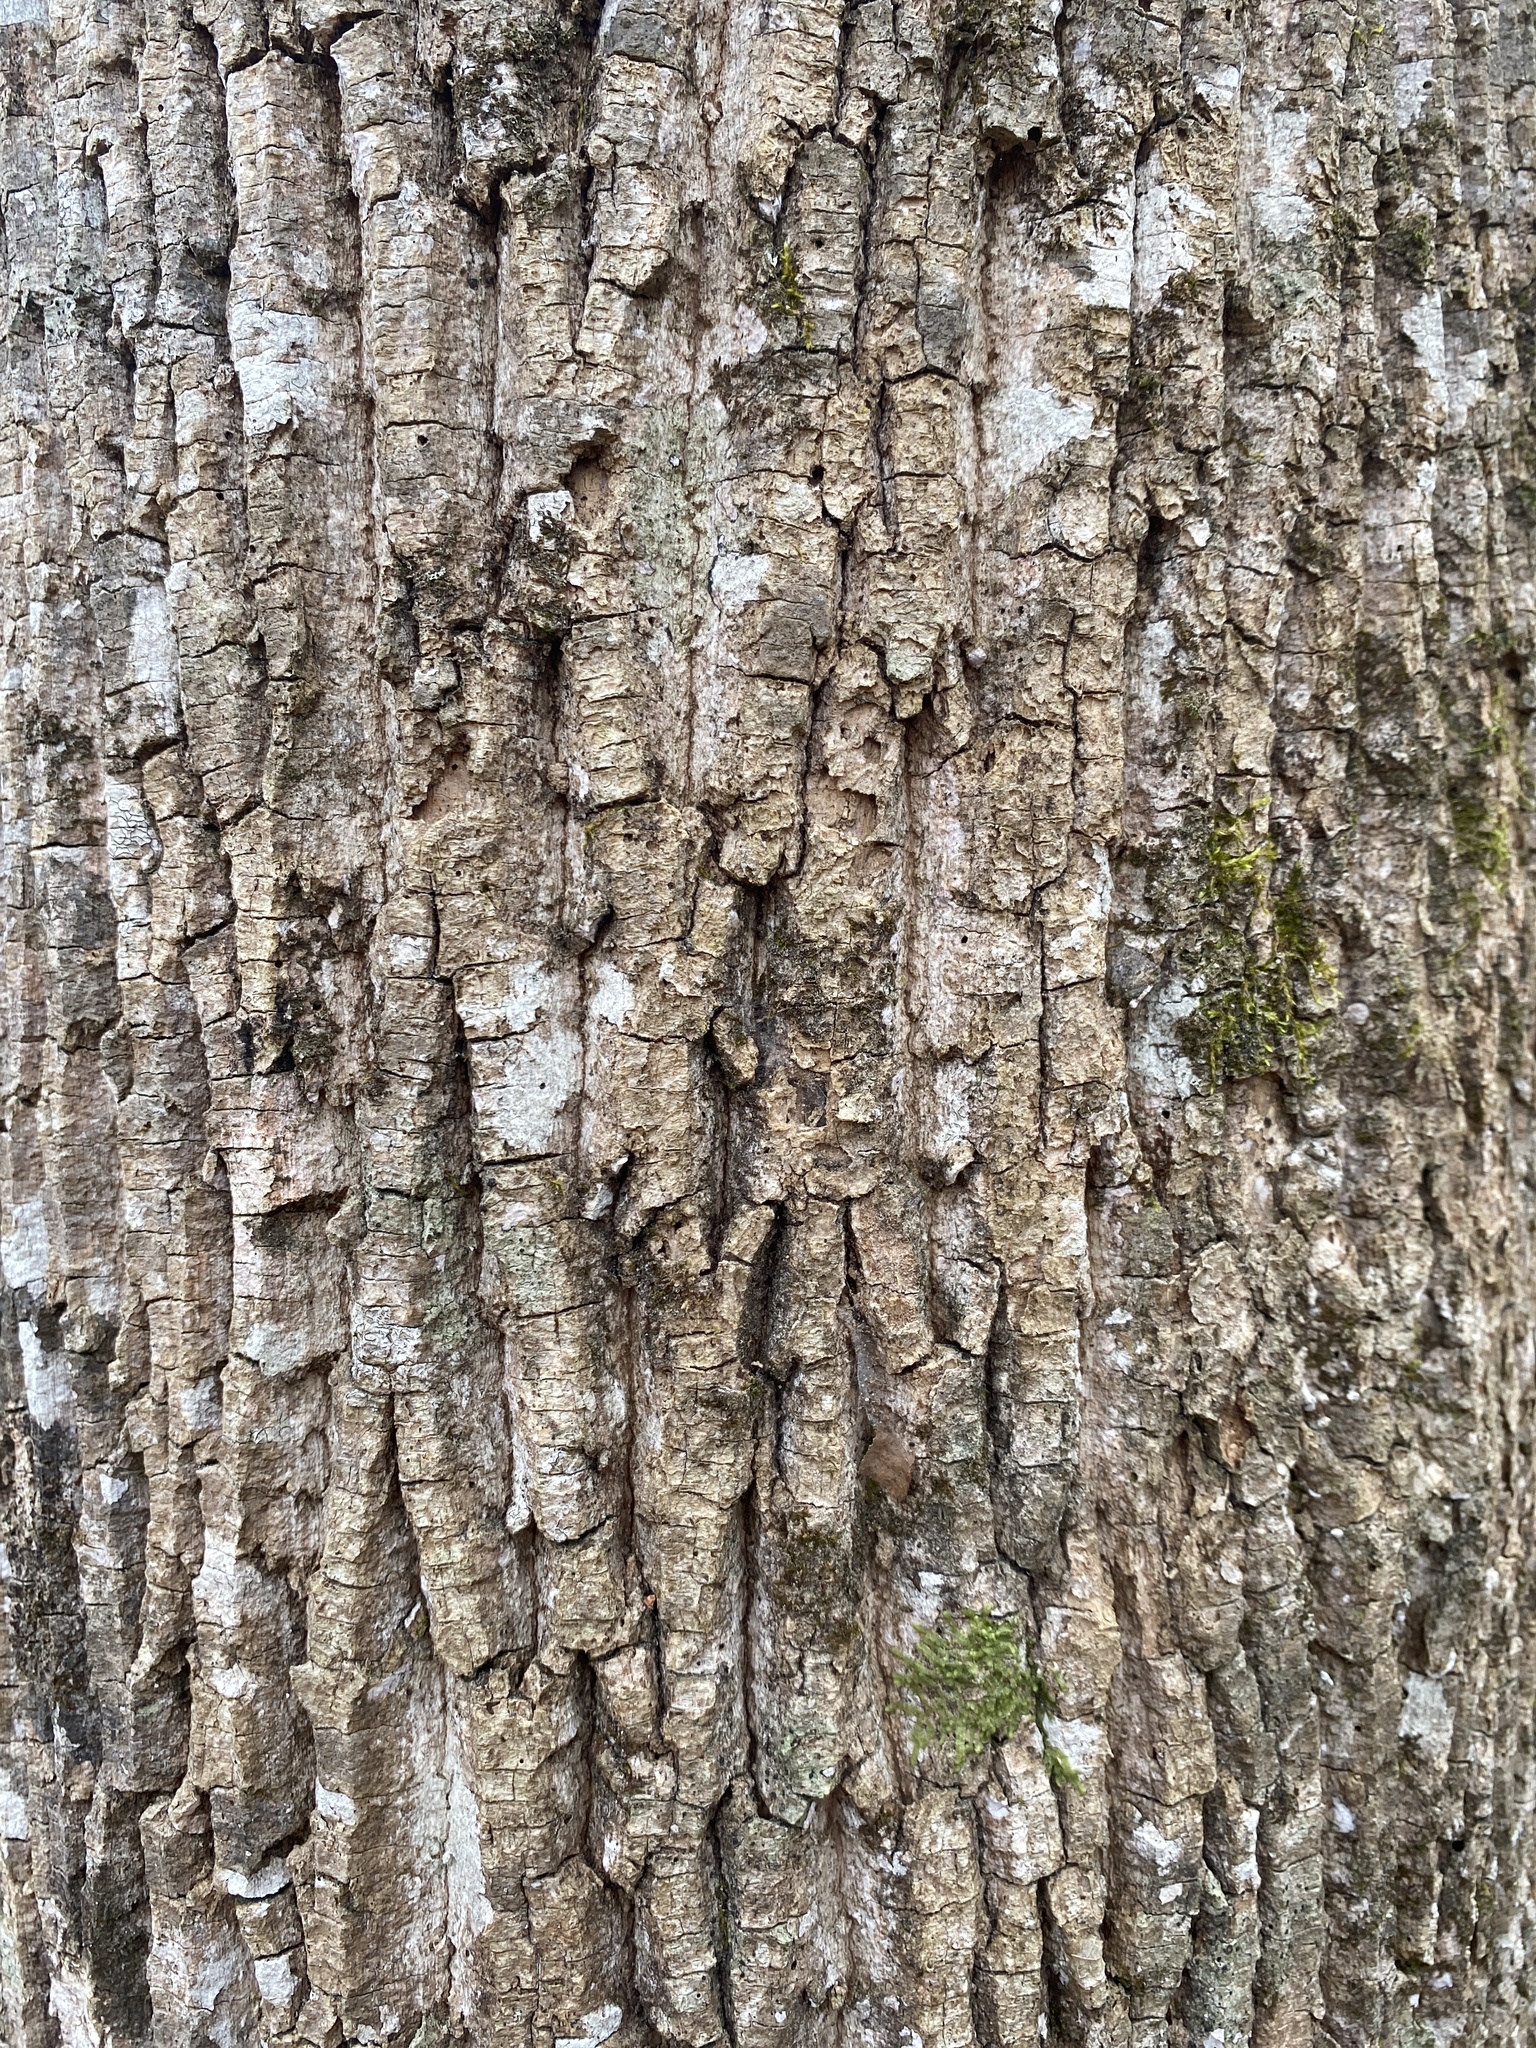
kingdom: Plantae
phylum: Tracheophyta
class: Magnoliopsida
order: Magnoliales
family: Magnoliaceae
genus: Liriodendron
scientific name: Liriodendron tulipifera
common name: Tulip tree
